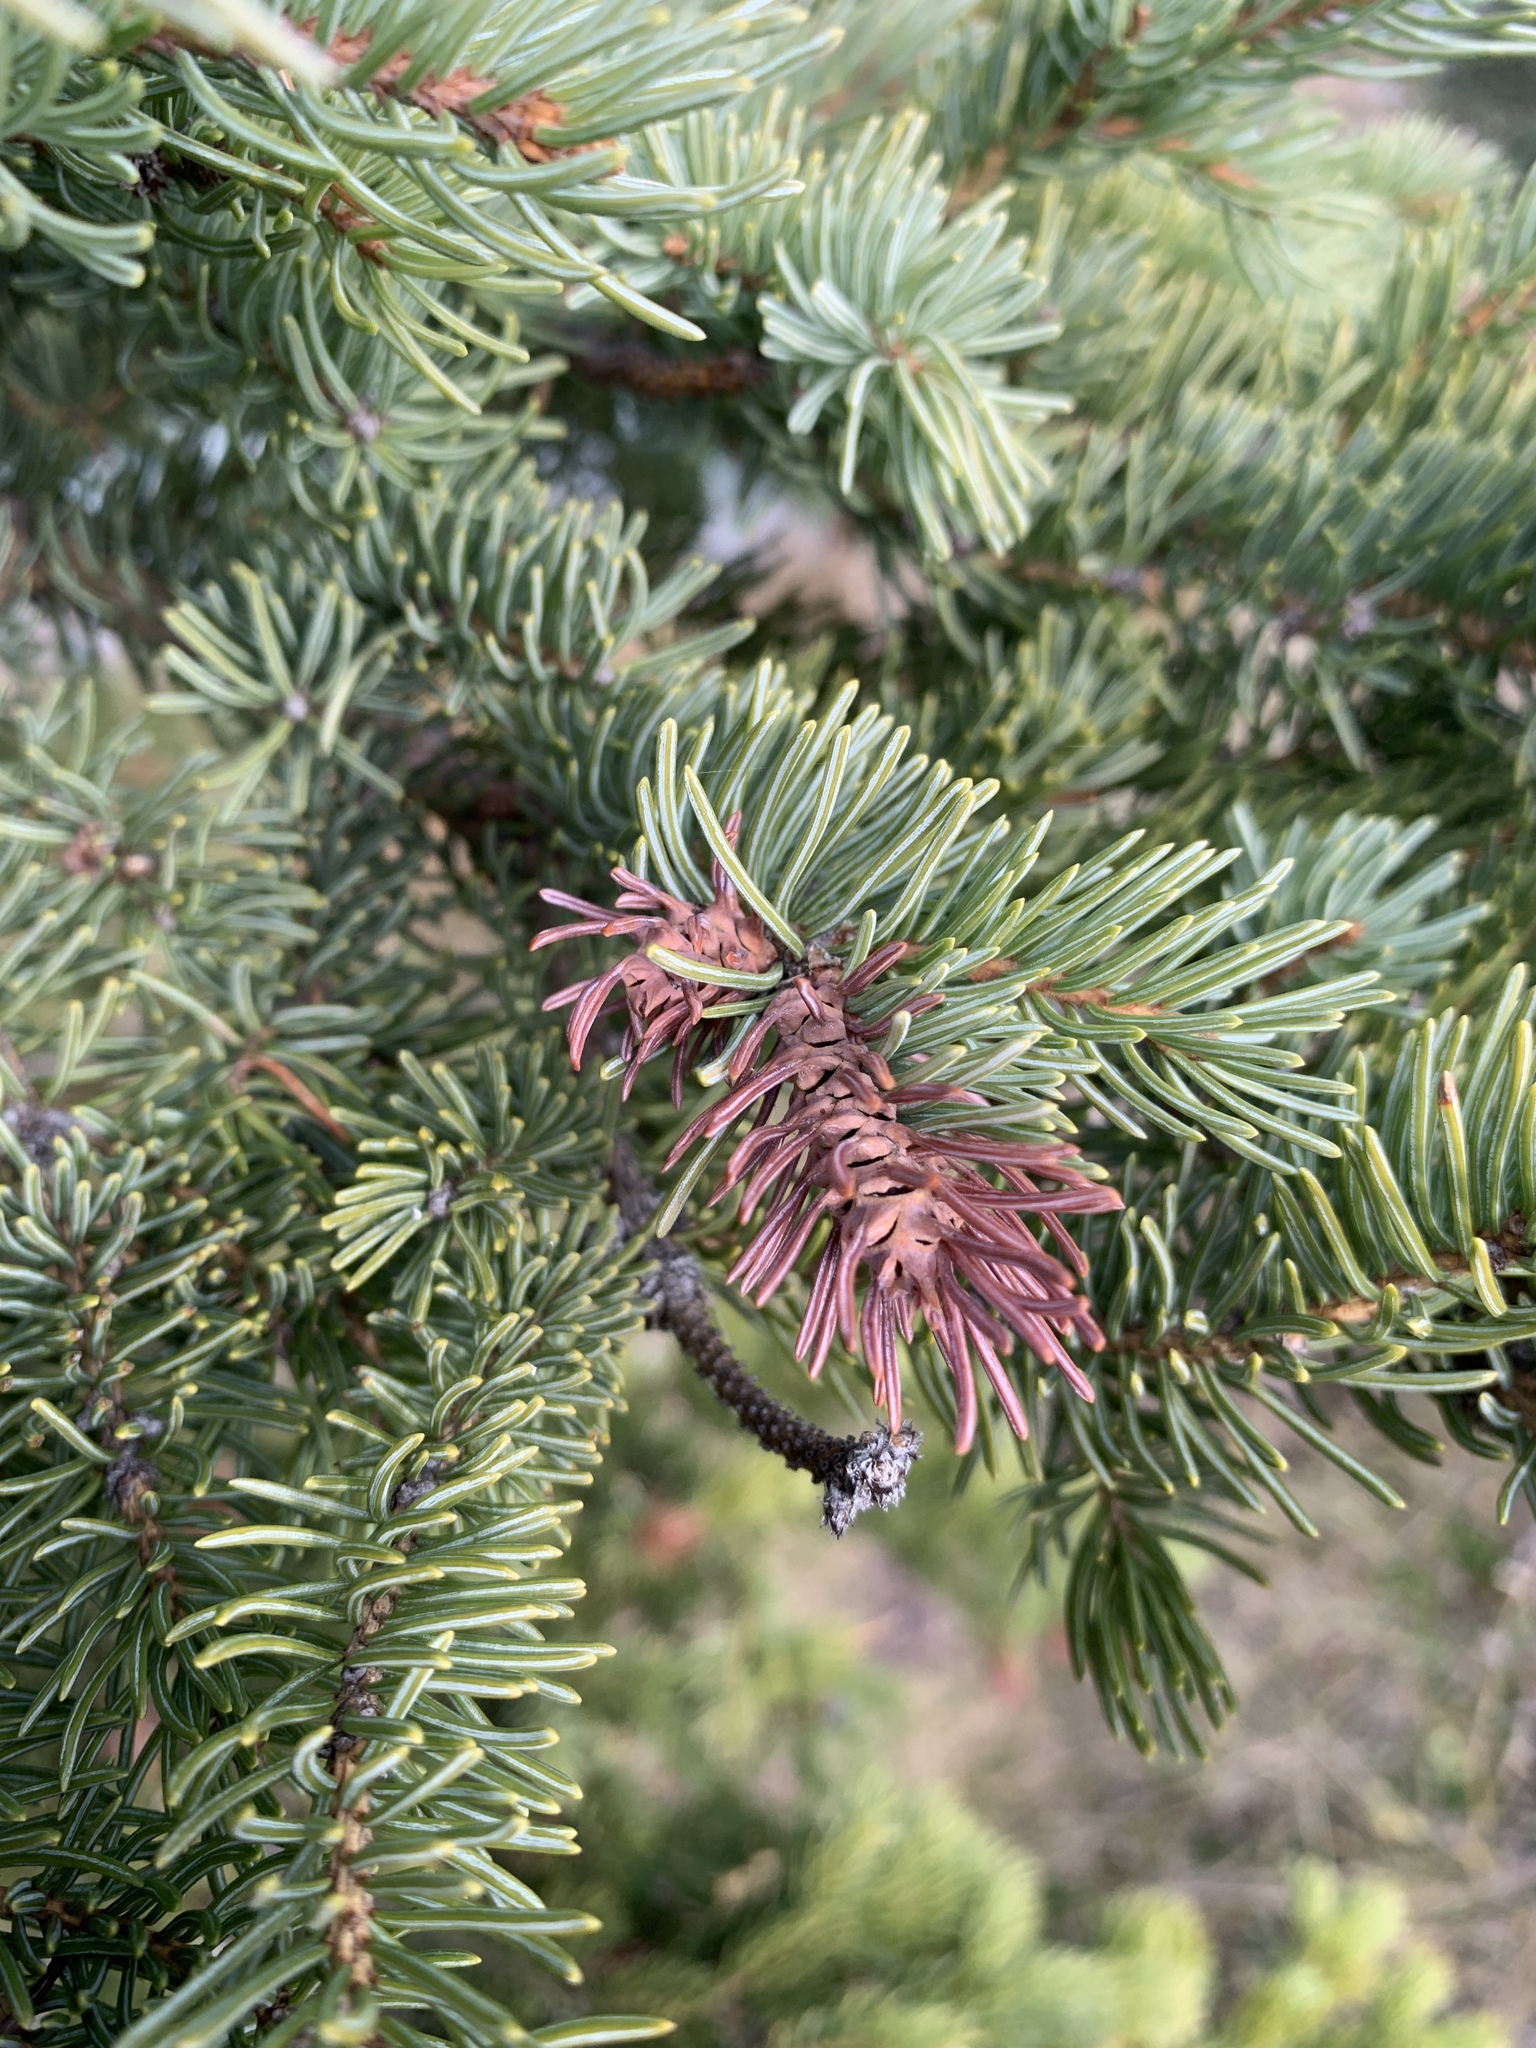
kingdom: Animalia
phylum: Arthropoda
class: Insecta
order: Hemiptera
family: Adelgidae
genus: Adelges
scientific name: Adelges cooleyi
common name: Cooley spruce gall adelgid
